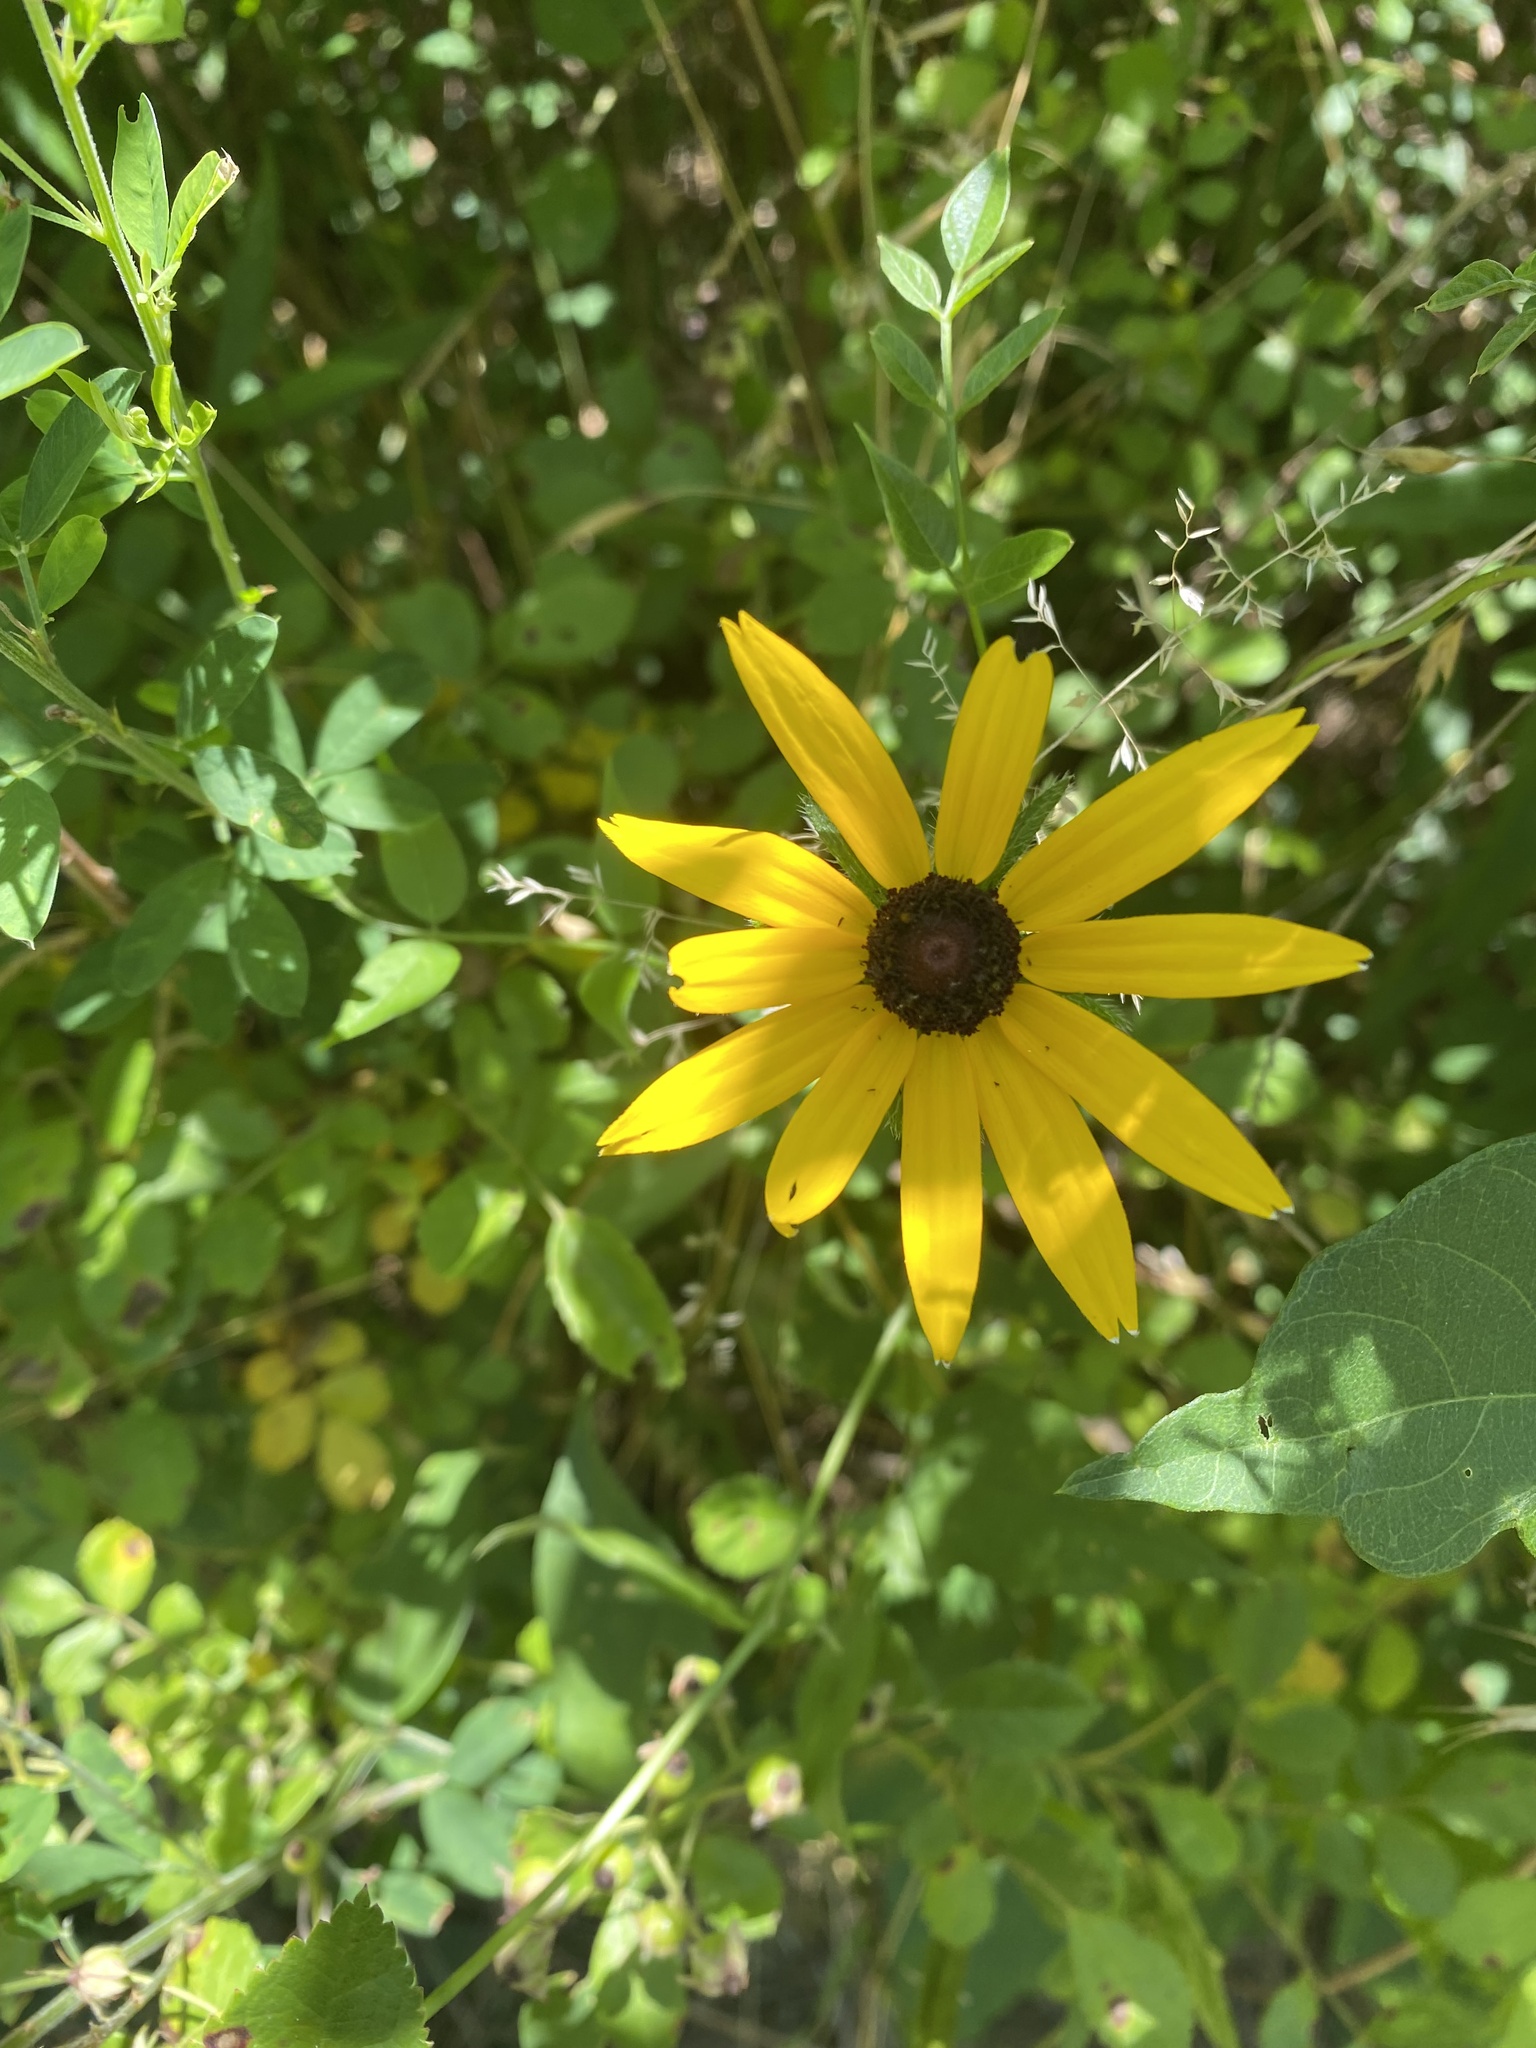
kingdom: Plantae
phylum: Tracheophyta
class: Magnoliopsida
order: Asterales
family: Asteraceae
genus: Rudbeckia
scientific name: Rudbeckia hirta
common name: Black-eyed-susan
